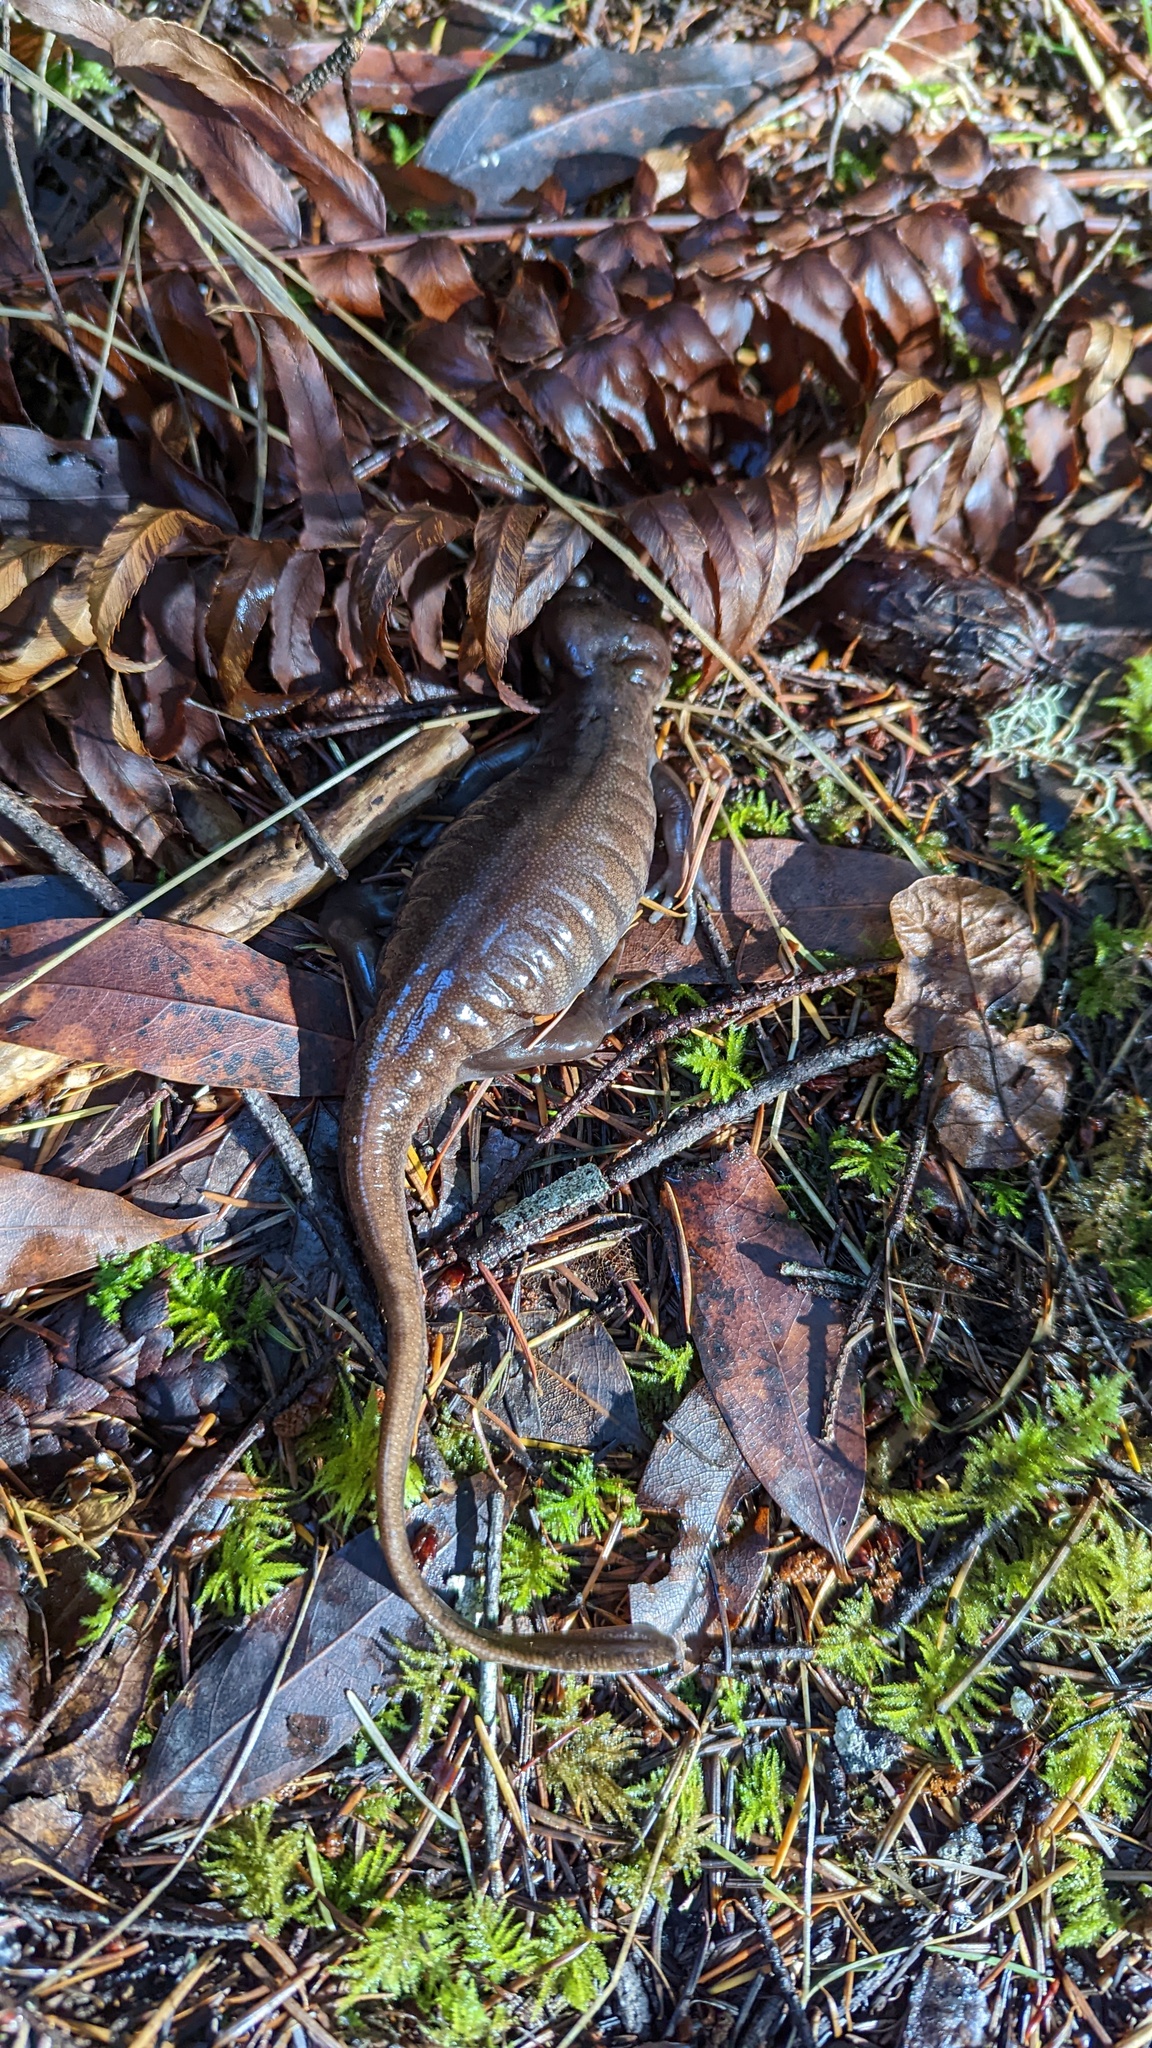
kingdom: Animalia
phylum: Chordata
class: Amphibia
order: Caudata
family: Ambystomatidae
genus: Ambystoma
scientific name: Ambystoma gracile
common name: Northwestern salamander
